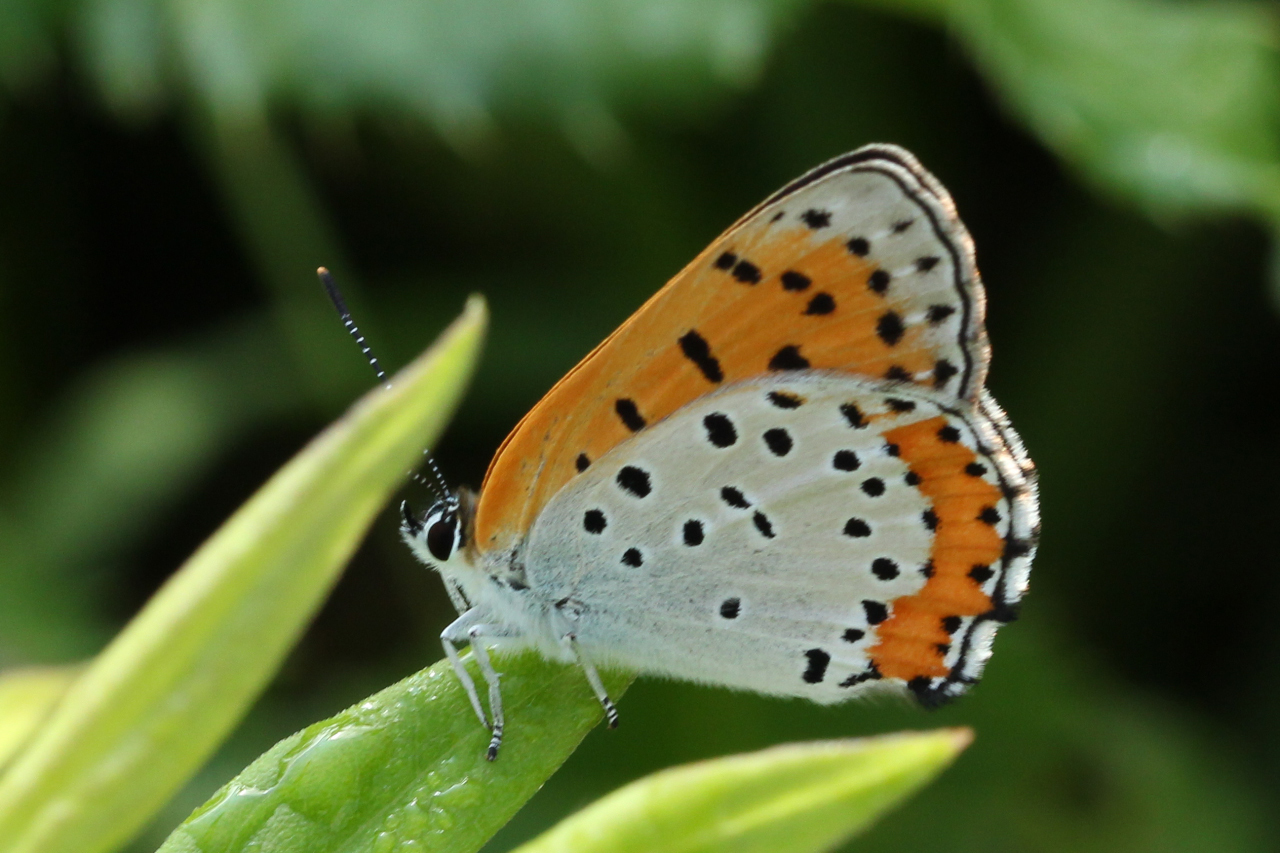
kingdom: Animalia
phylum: Arthropoda
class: Insecta
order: Lepidoptera
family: Lycaenidae
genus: Tharsalea
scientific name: Tharsalea hyllus
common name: Bronze copper
